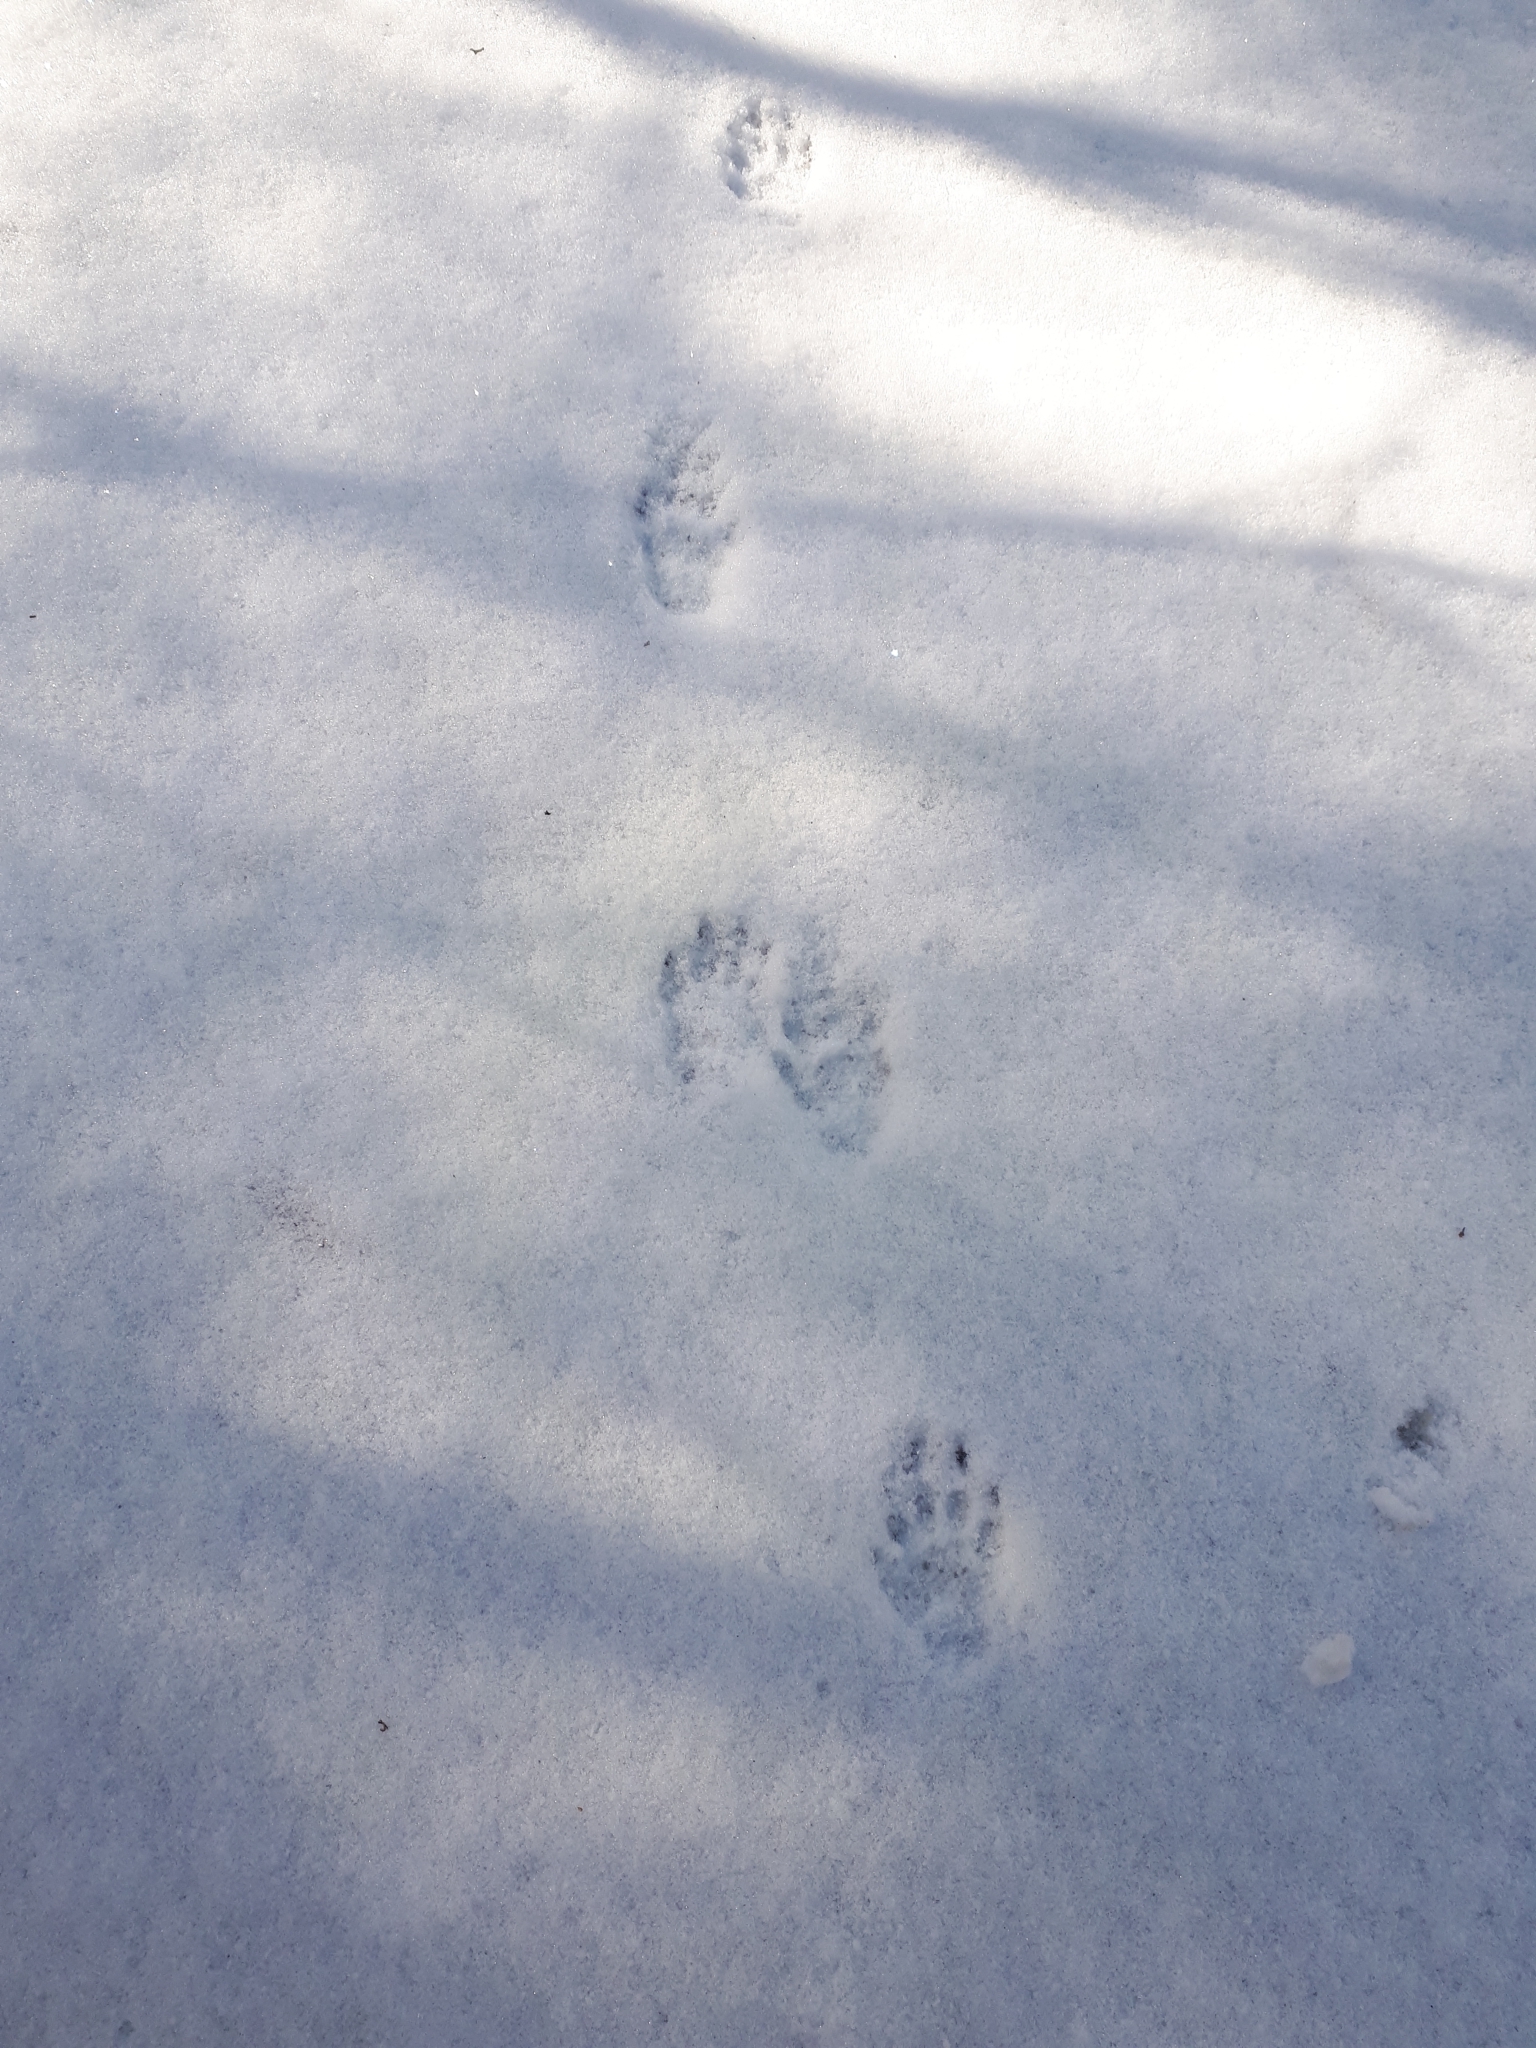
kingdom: Animalia
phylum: Chordata
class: Mammalia
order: Carnivora
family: Mephitidae
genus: Mephitis
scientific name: Mephitis mephitis
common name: Striped skunk
